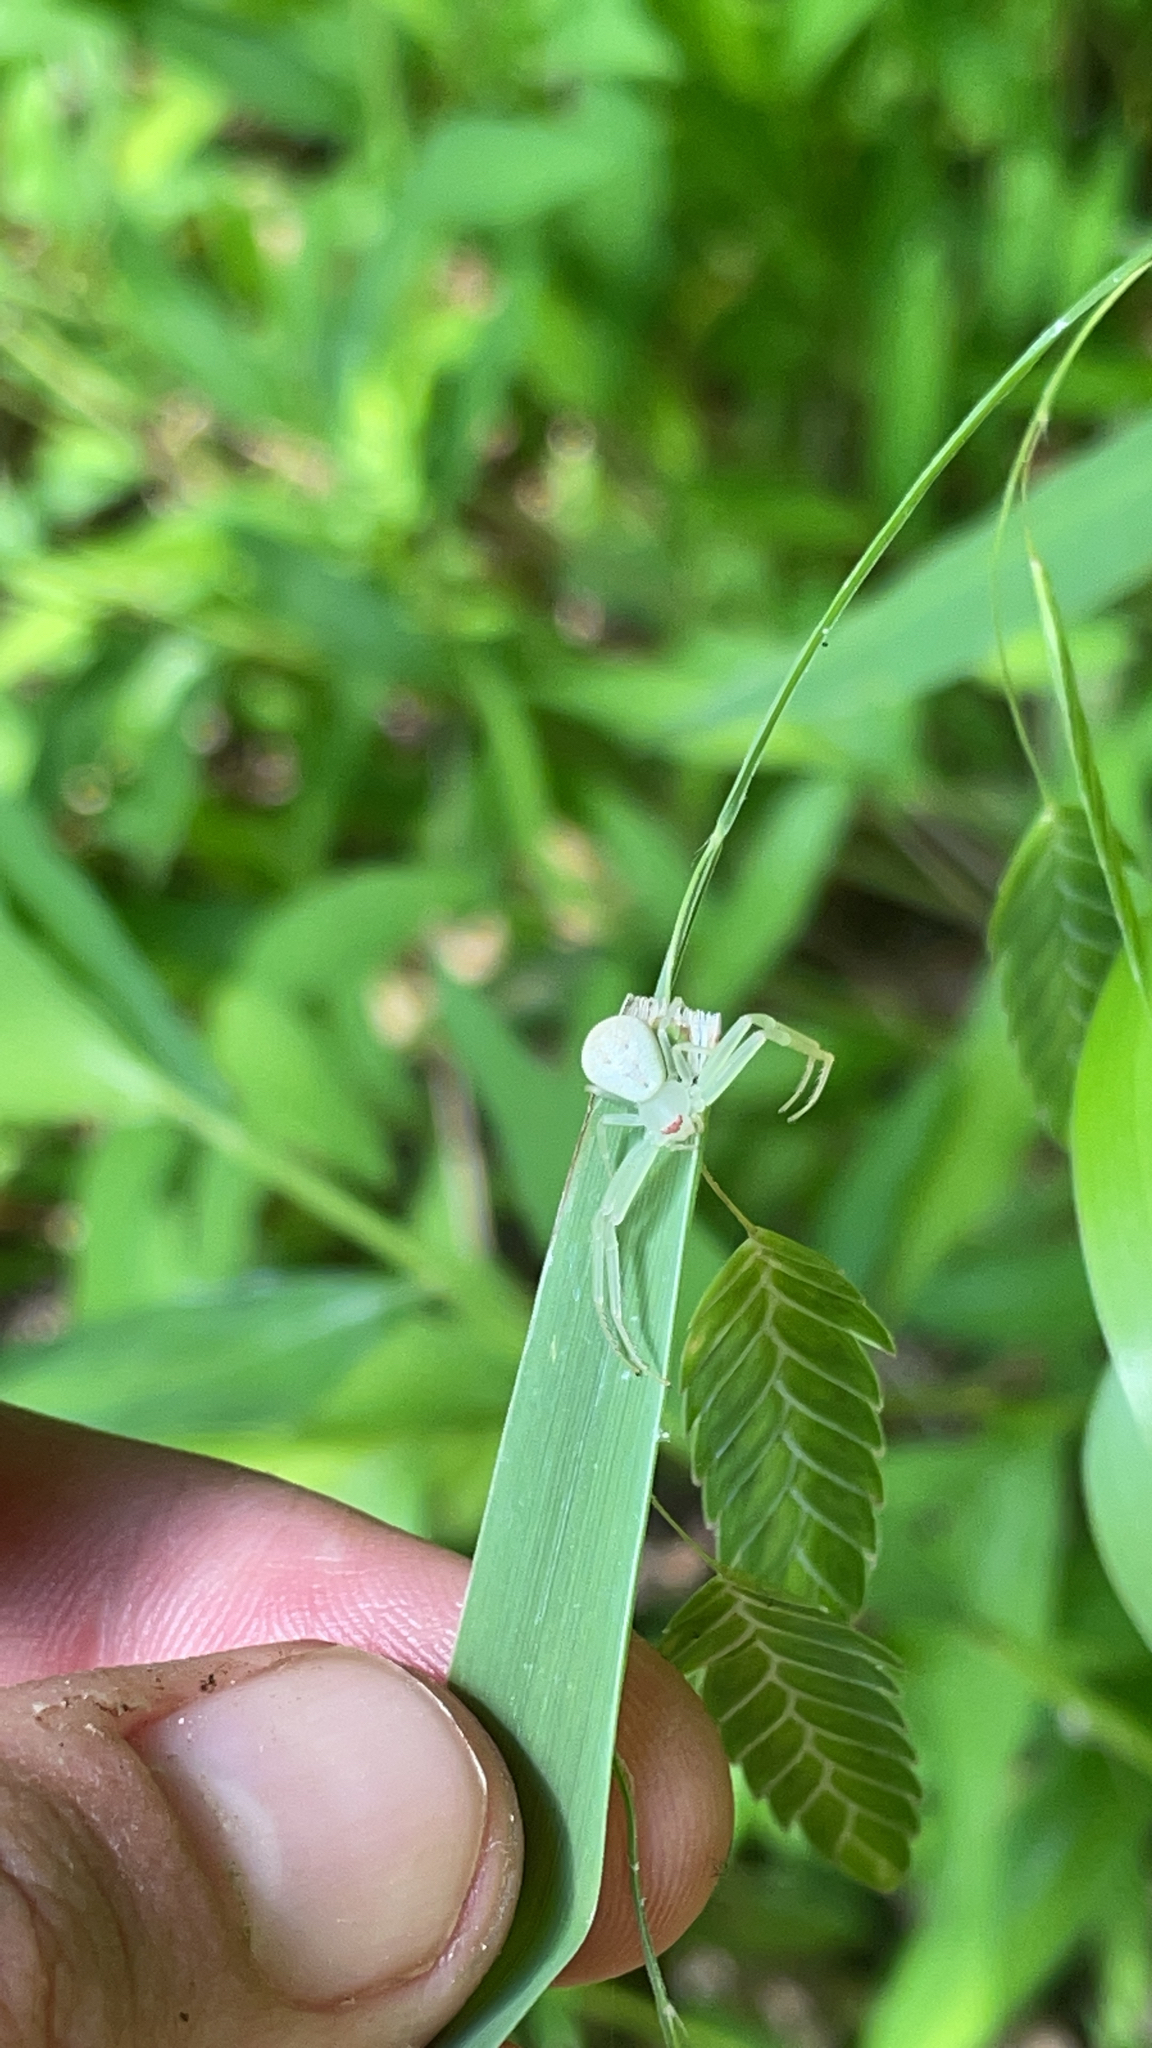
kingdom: Animalia
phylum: Arthropoda
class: Arachnida
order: Araneae
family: Thomisidae
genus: Misumessus
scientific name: Misumessus oblongus
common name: American green crab spider
